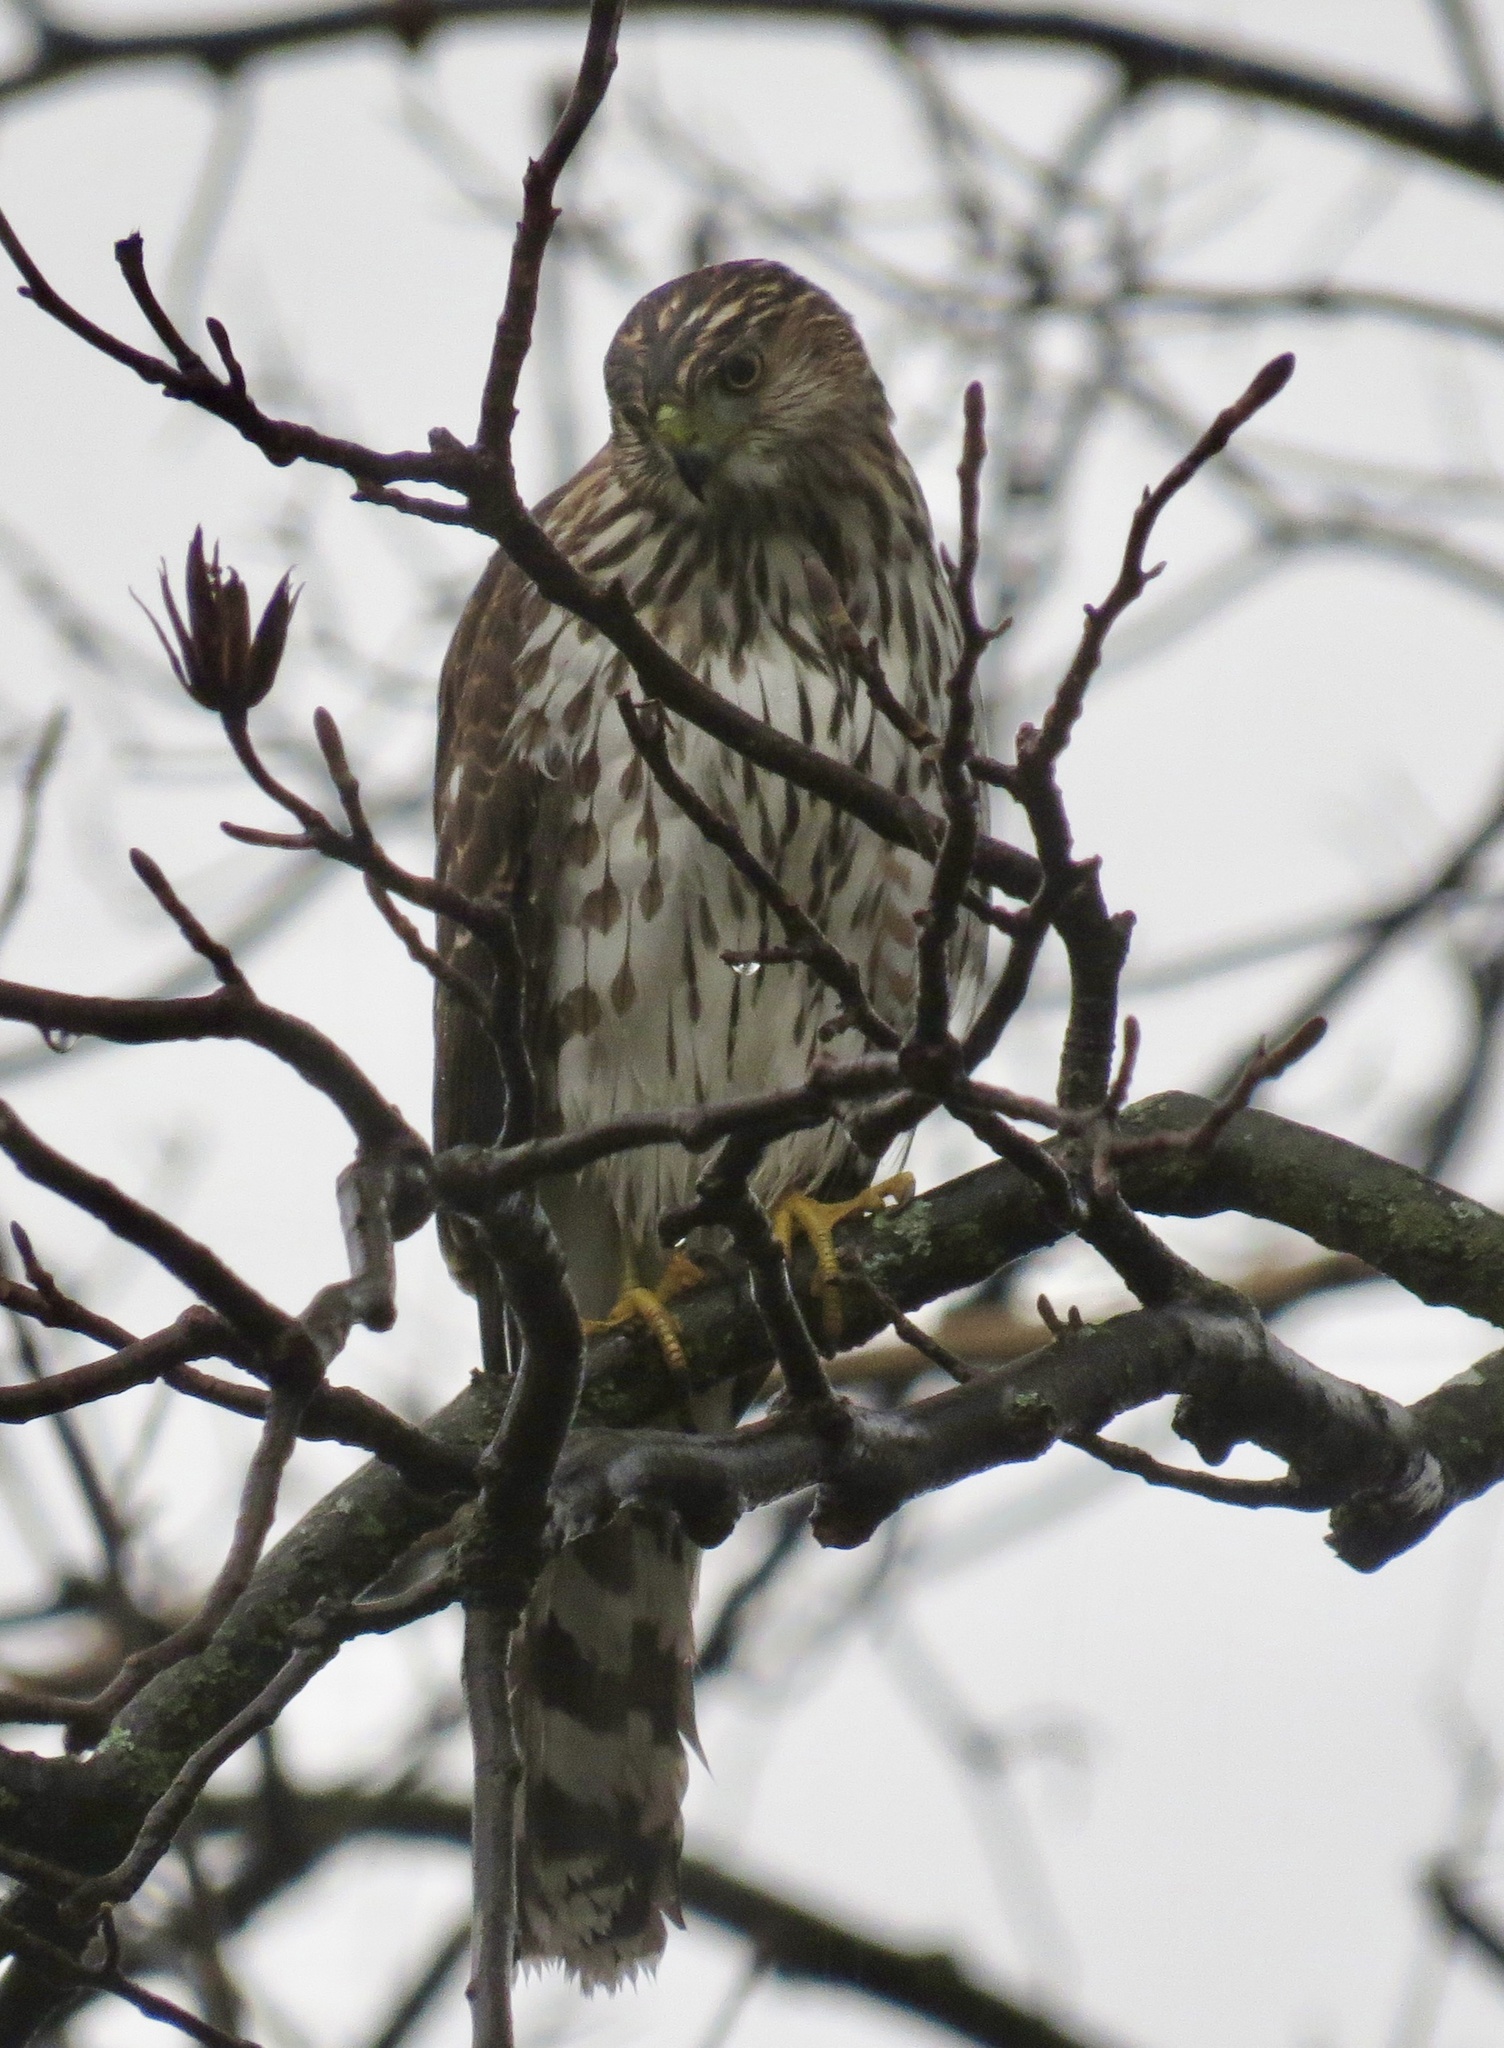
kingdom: Animalia
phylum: Chordata
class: Aves
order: Accipitriformes
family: Accipitridae
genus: Accipiter
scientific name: Accipiter cooperii
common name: Cooper's hawk
